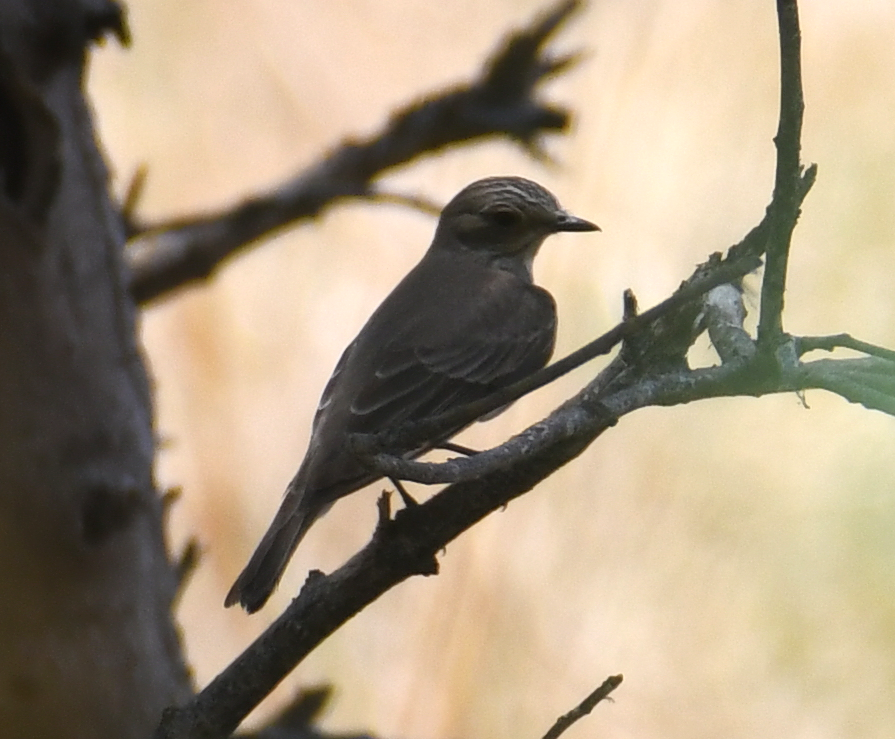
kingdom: Animalia
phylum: Chordata
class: Aves
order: Passeriformes
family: Muscicapidae
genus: Muscicapa
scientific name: Muscicapa striata
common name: Spotted flycatcher
